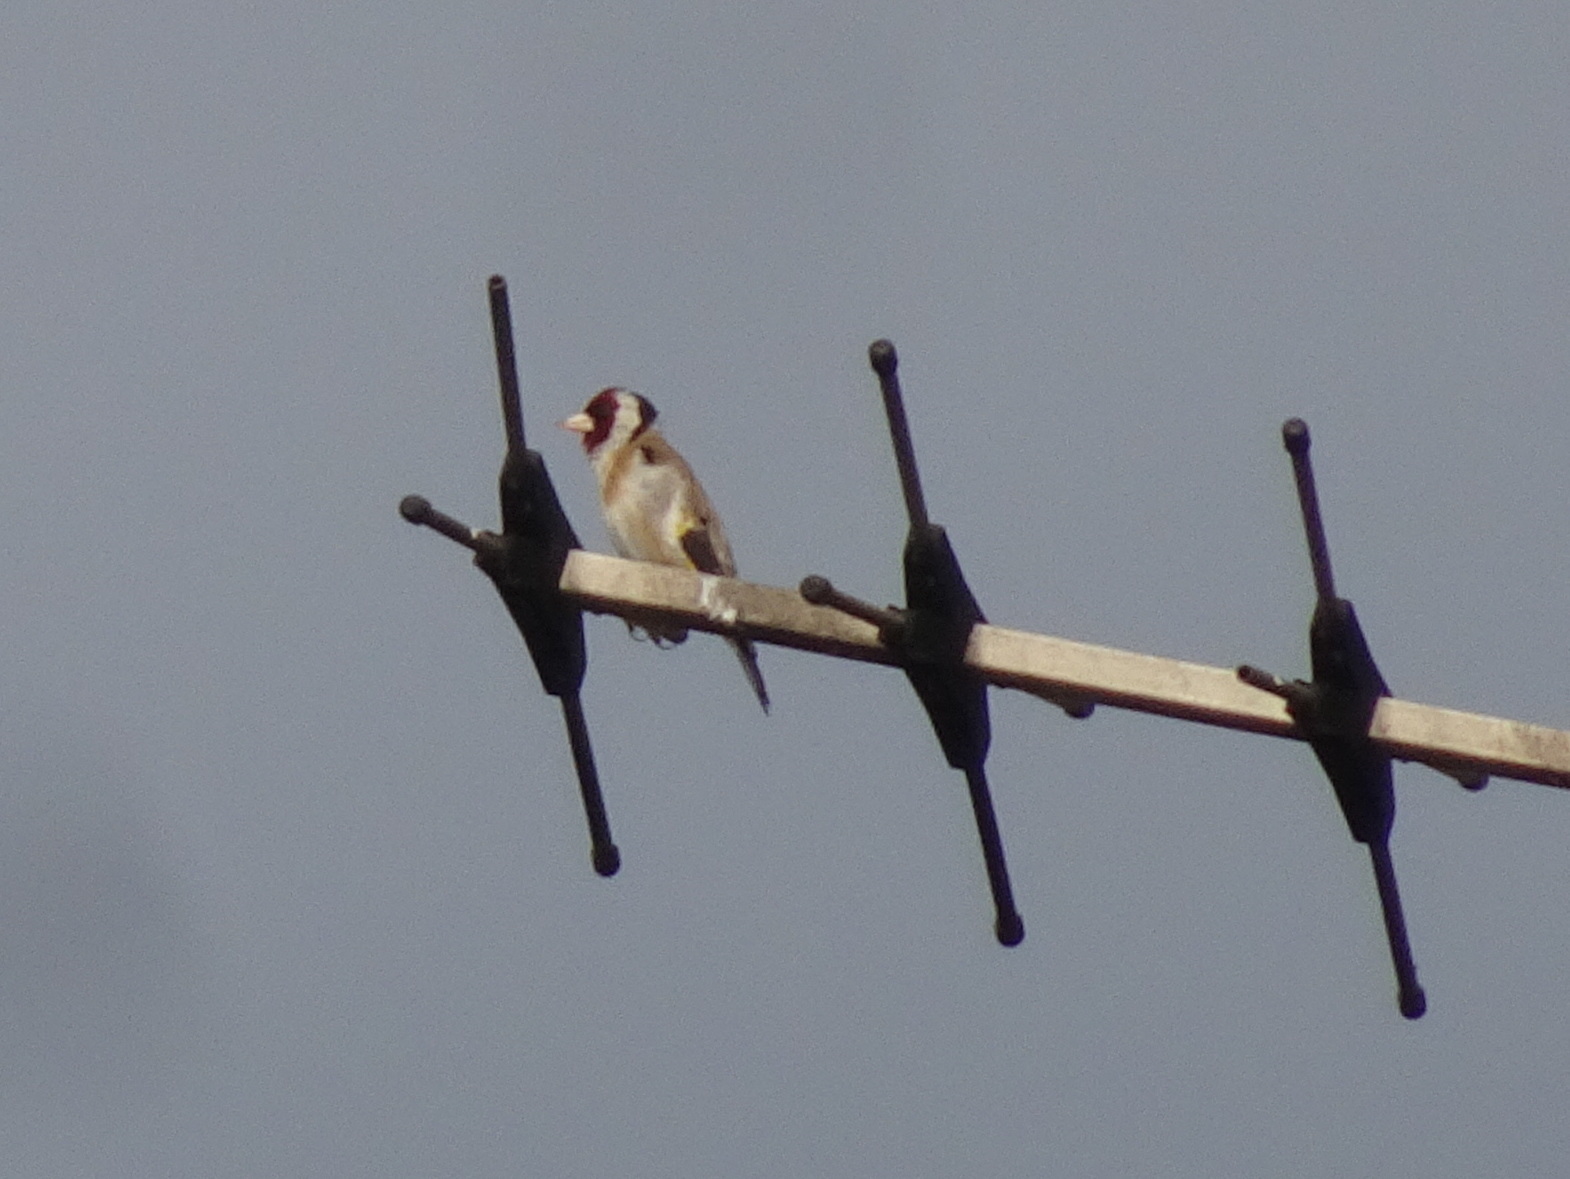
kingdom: Animalia
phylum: Chordata
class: Aves
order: Passeriformes
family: Fringillidae
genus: Carduelis
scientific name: Carduelis carduelis
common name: European goldfinch
